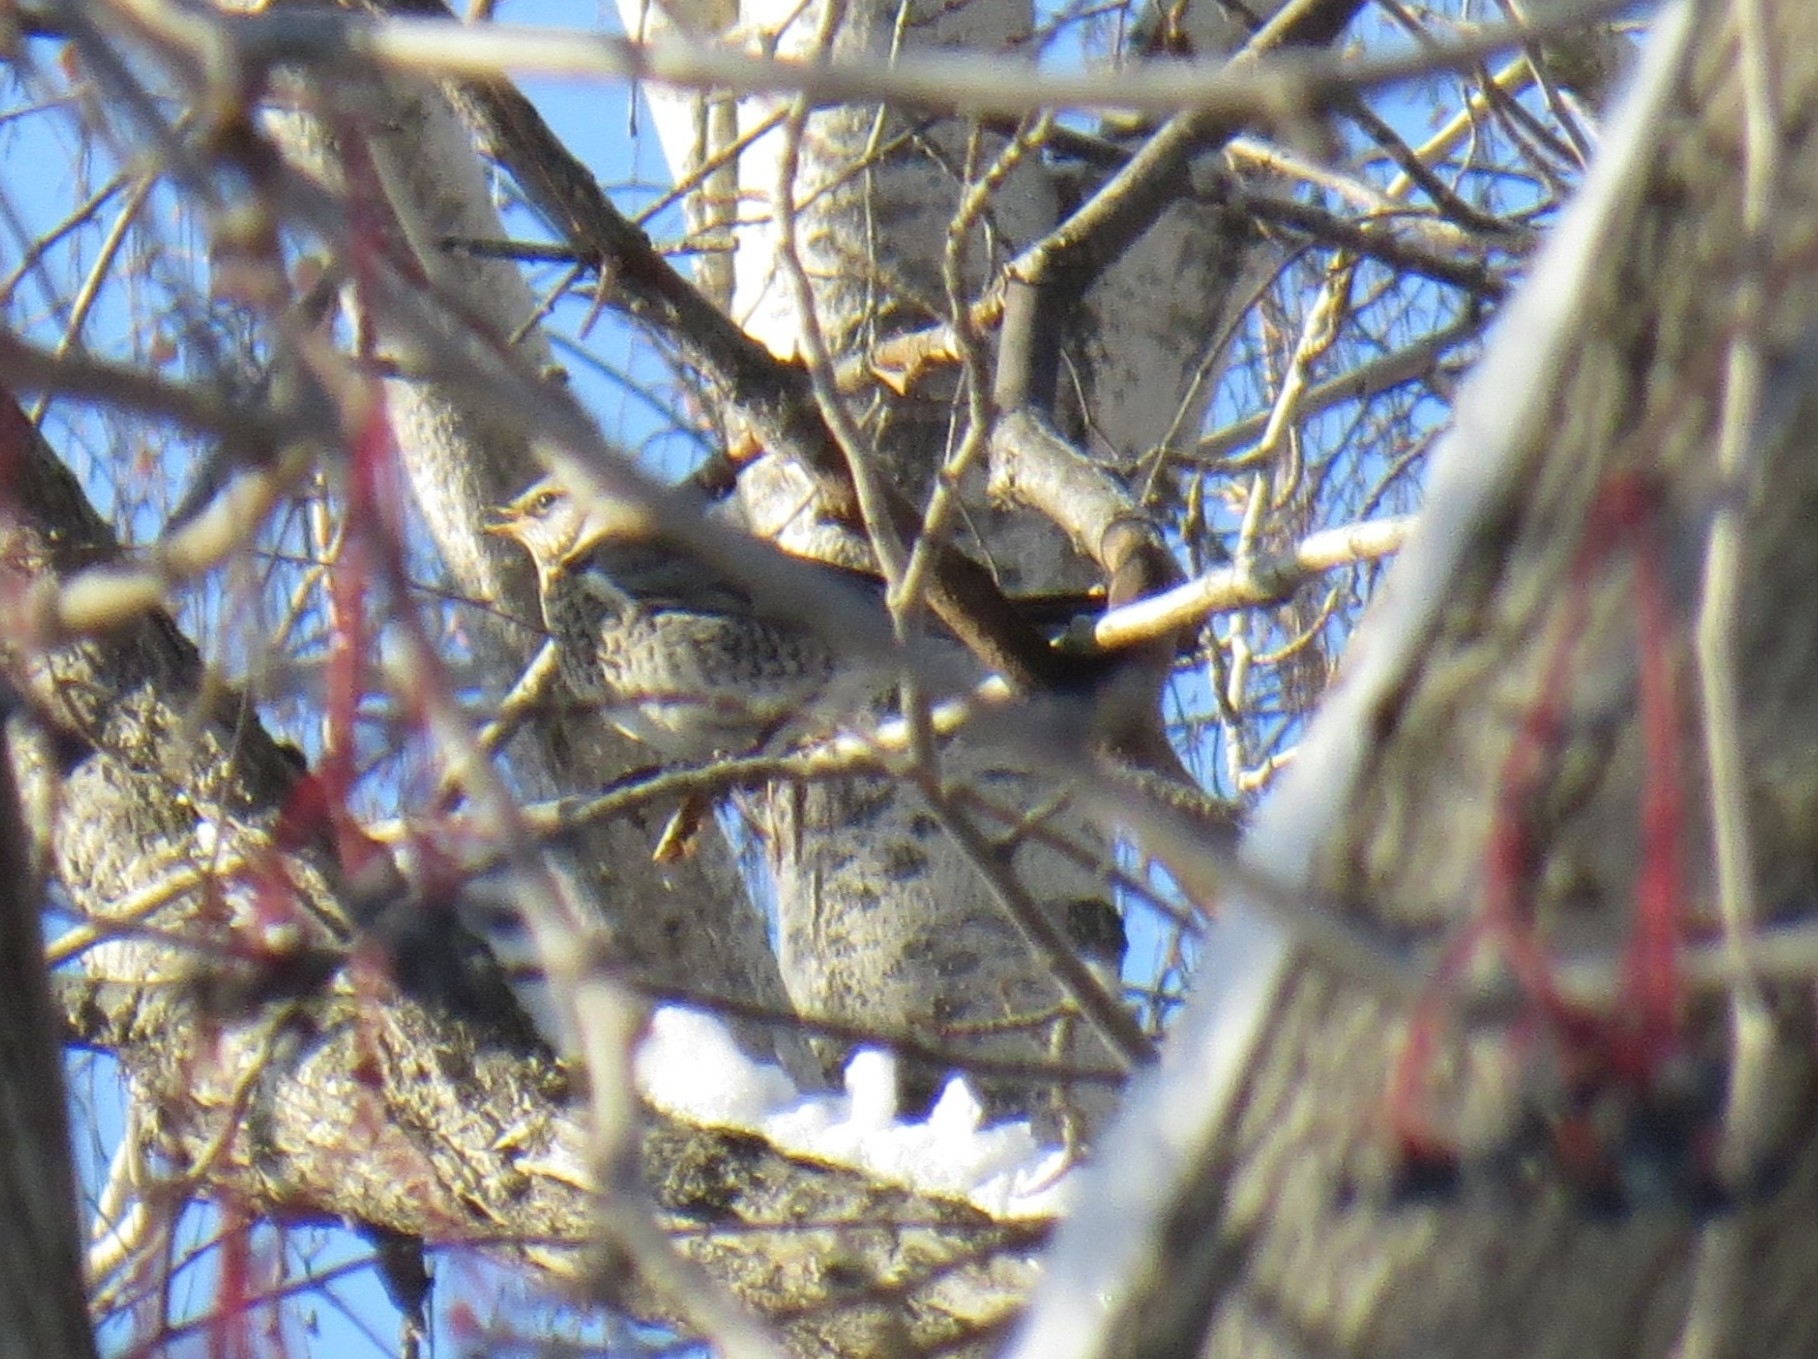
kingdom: Animalia
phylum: Chordata
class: Aves
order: Passeriformes
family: Turdidae
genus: Turdus
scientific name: Turdus pilaris
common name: Fieldfare
